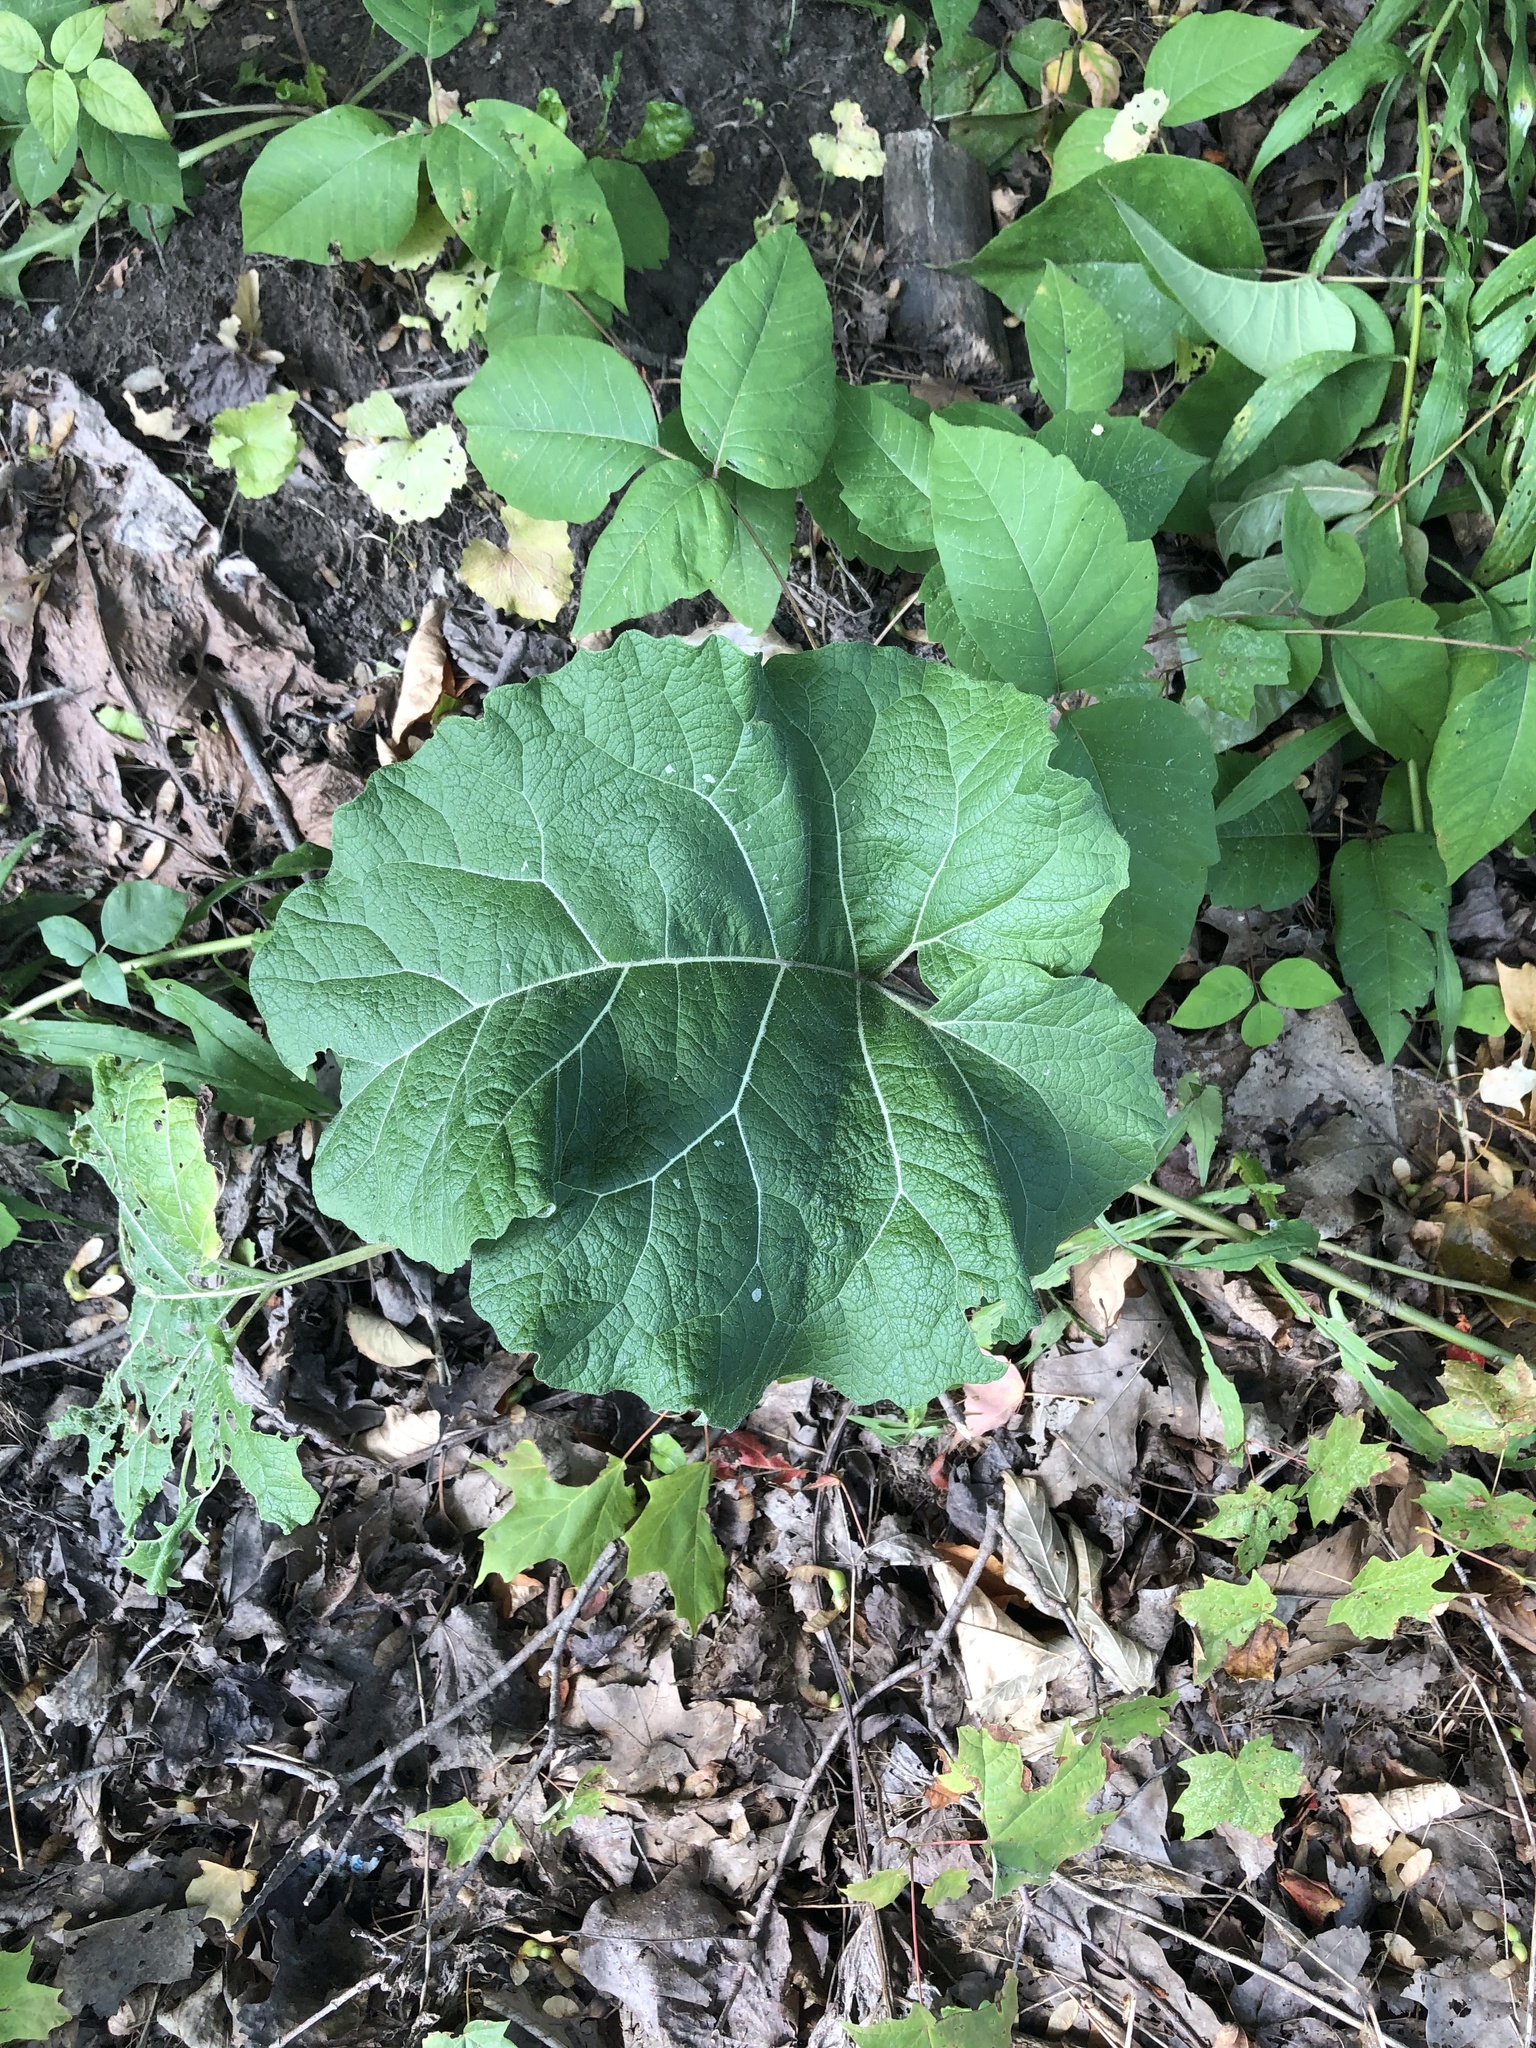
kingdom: Plantae
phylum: Tracheophyta
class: Magnoliopsida
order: Asterales
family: Asteraceae
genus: Arctium
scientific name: Arctium
